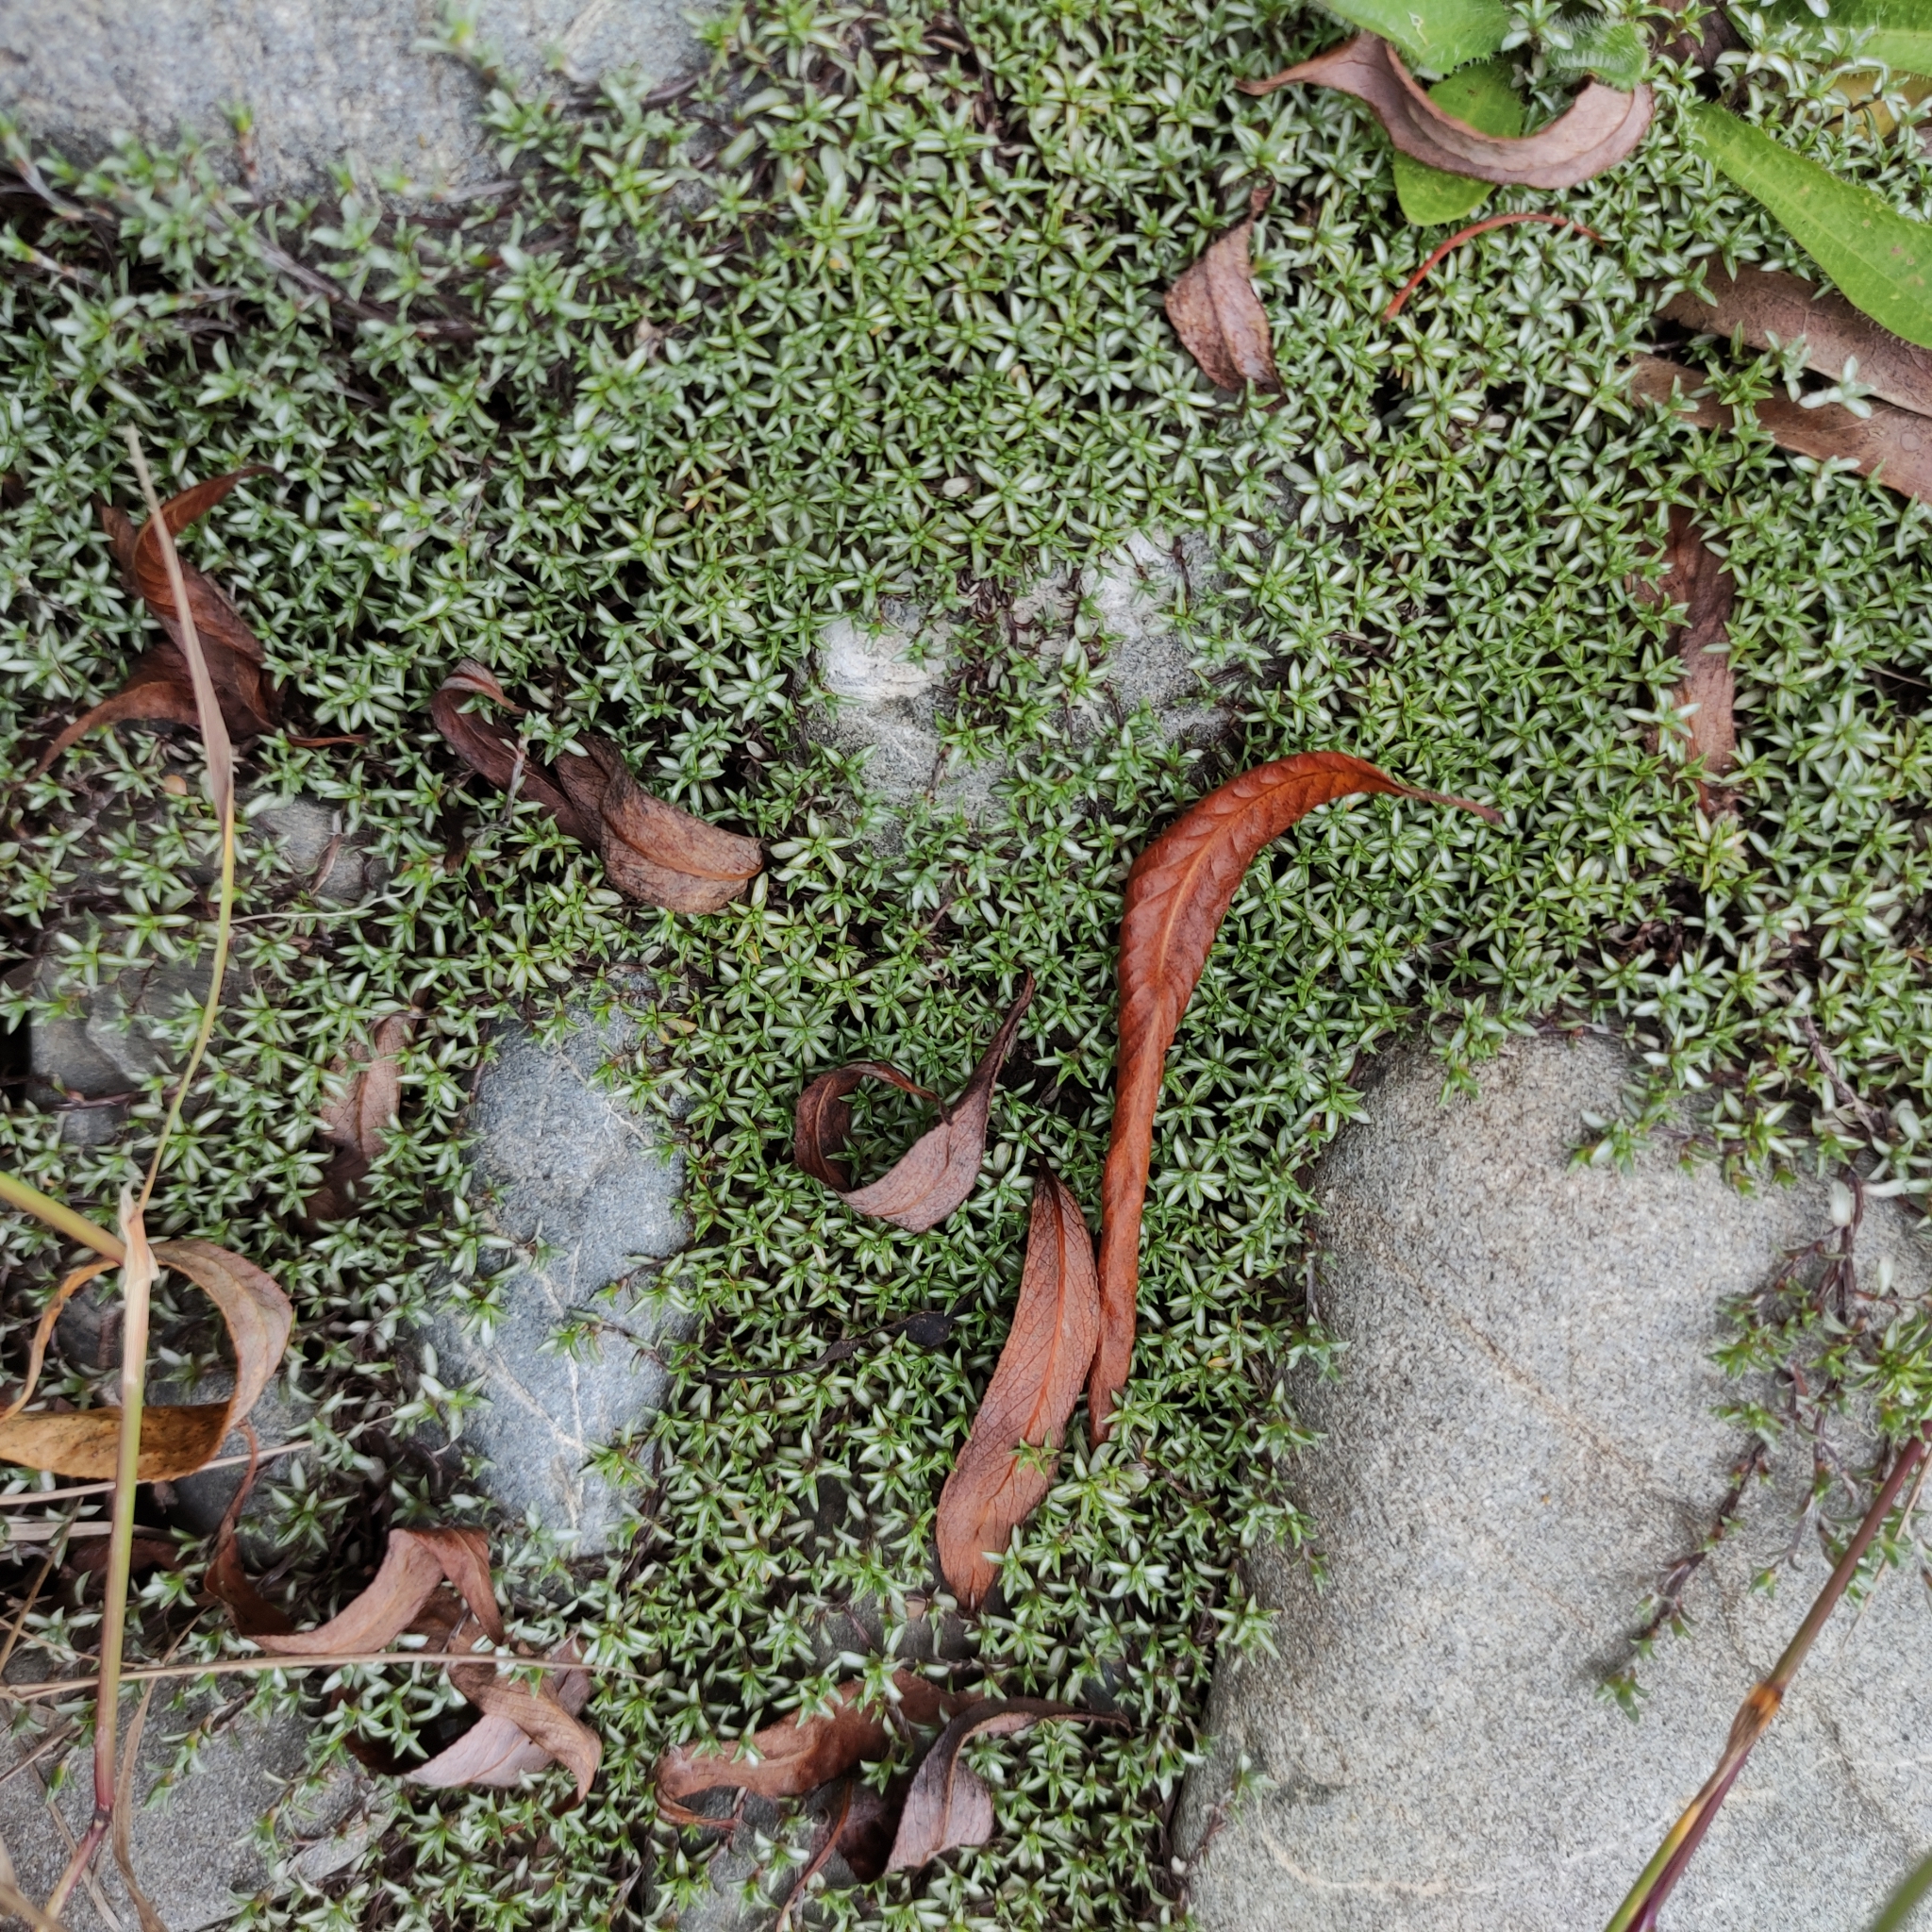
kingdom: Plantae
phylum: Tracheophyta
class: Magnoliopsida
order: Asterales
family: Asteraceae
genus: Raoulia
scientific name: Raoulia tenuicaulis
